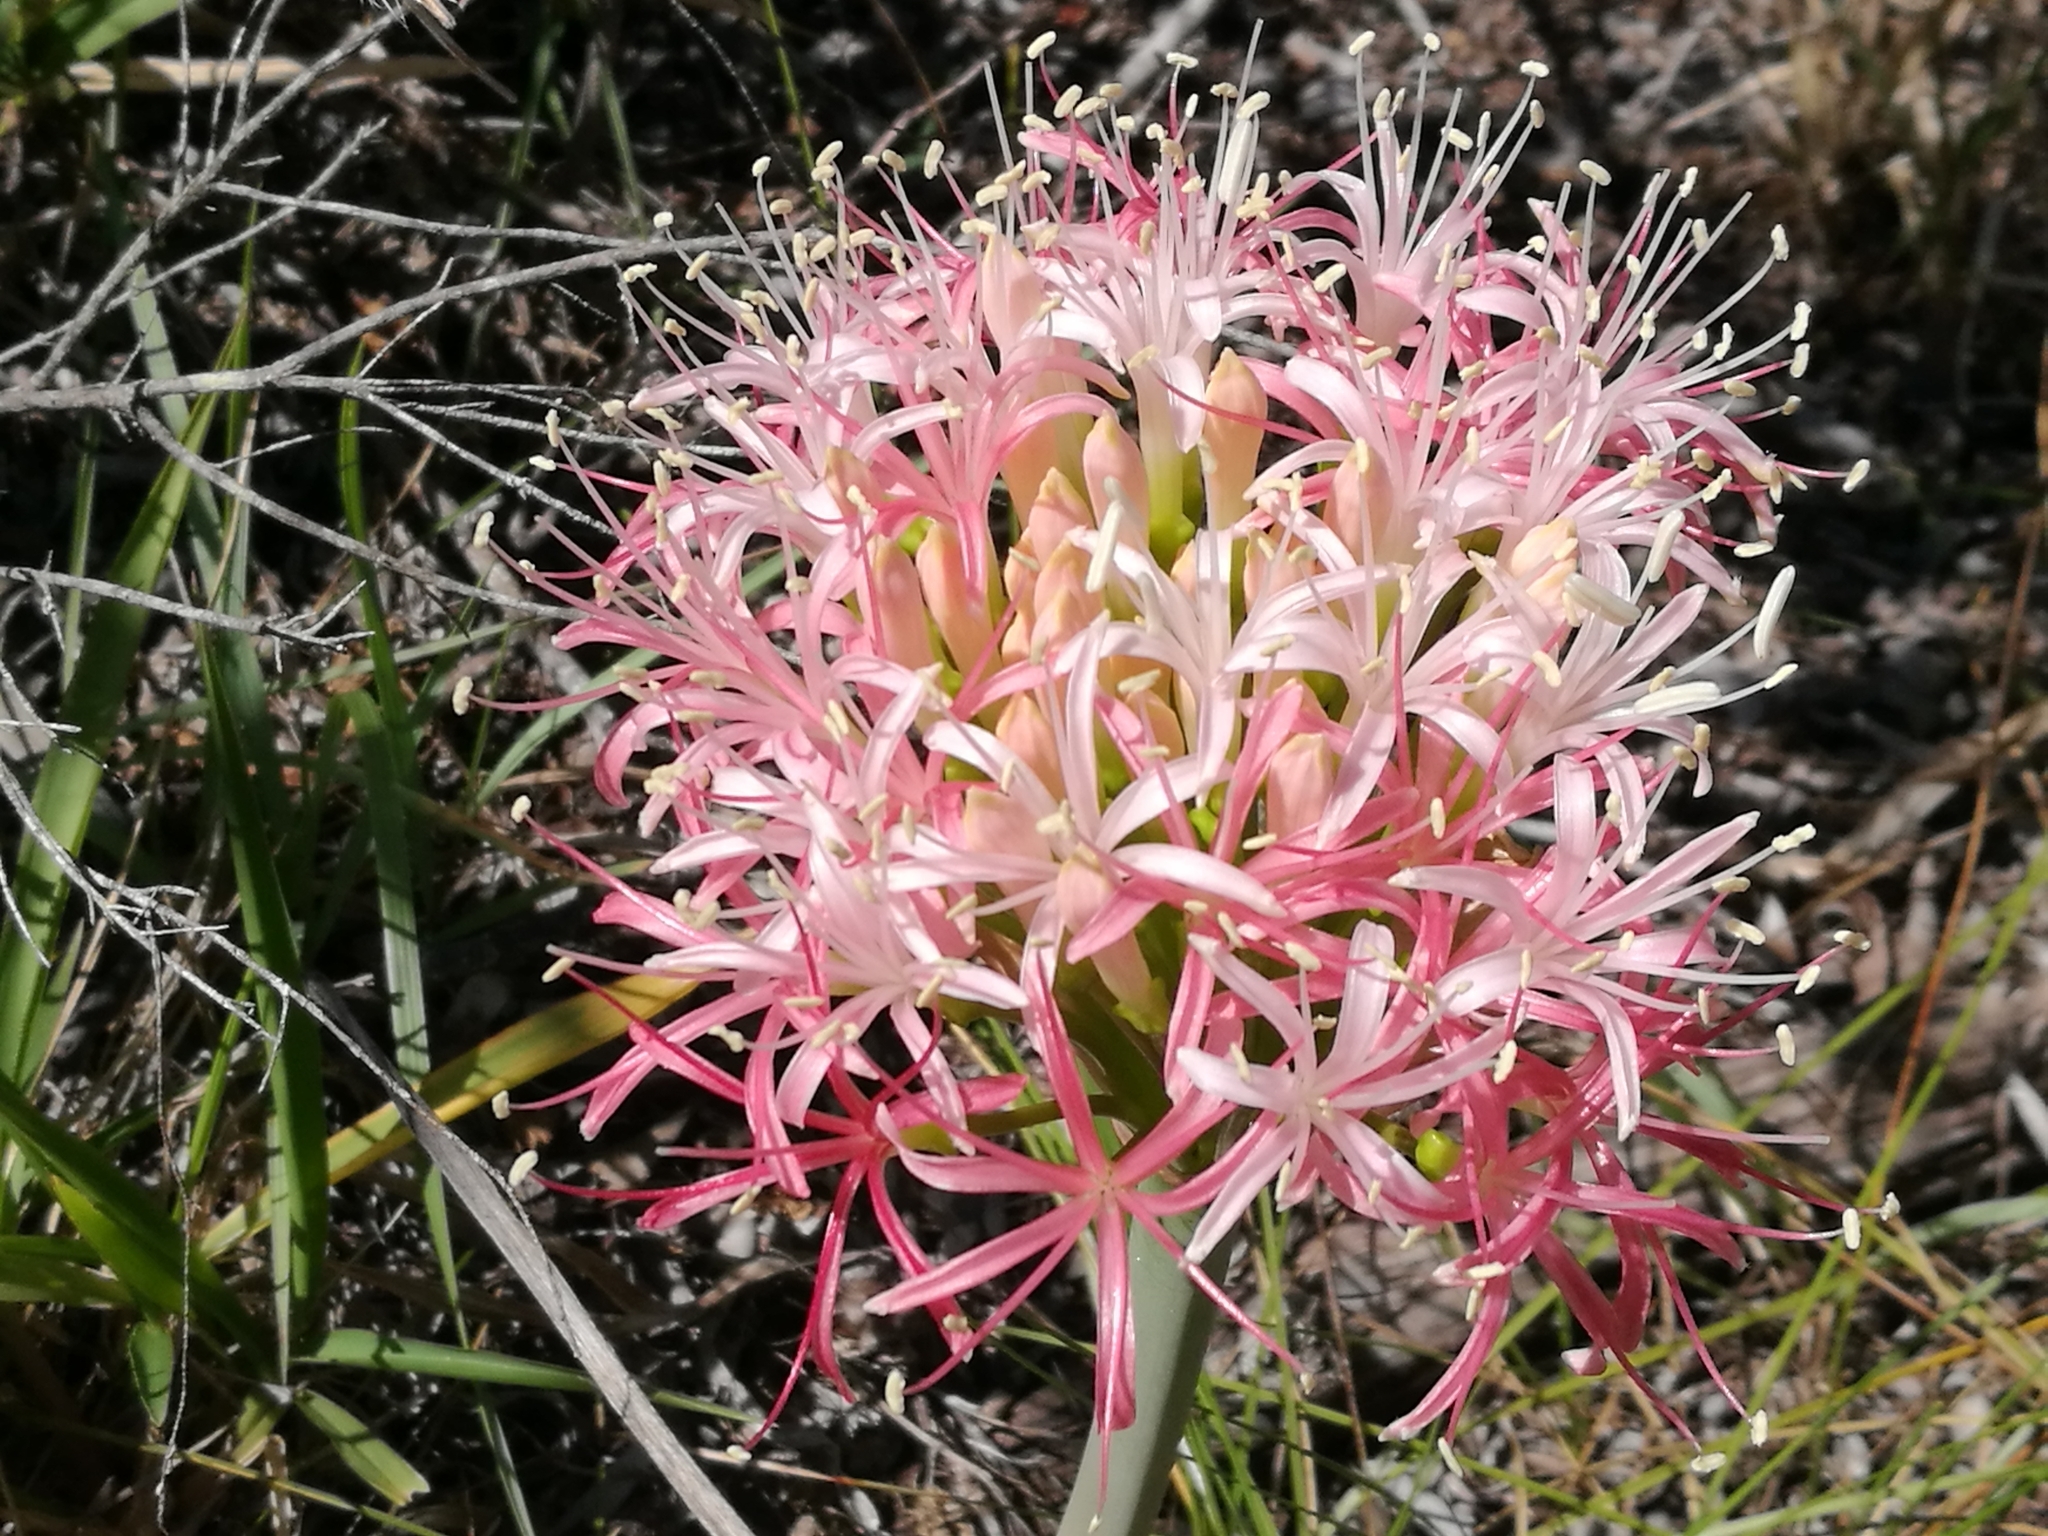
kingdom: Plantae
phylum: Tracheophyta
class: Liliopsida
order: Asparagales
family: Amaryllidaceae
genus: Boophone
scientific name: Boophone disticha
